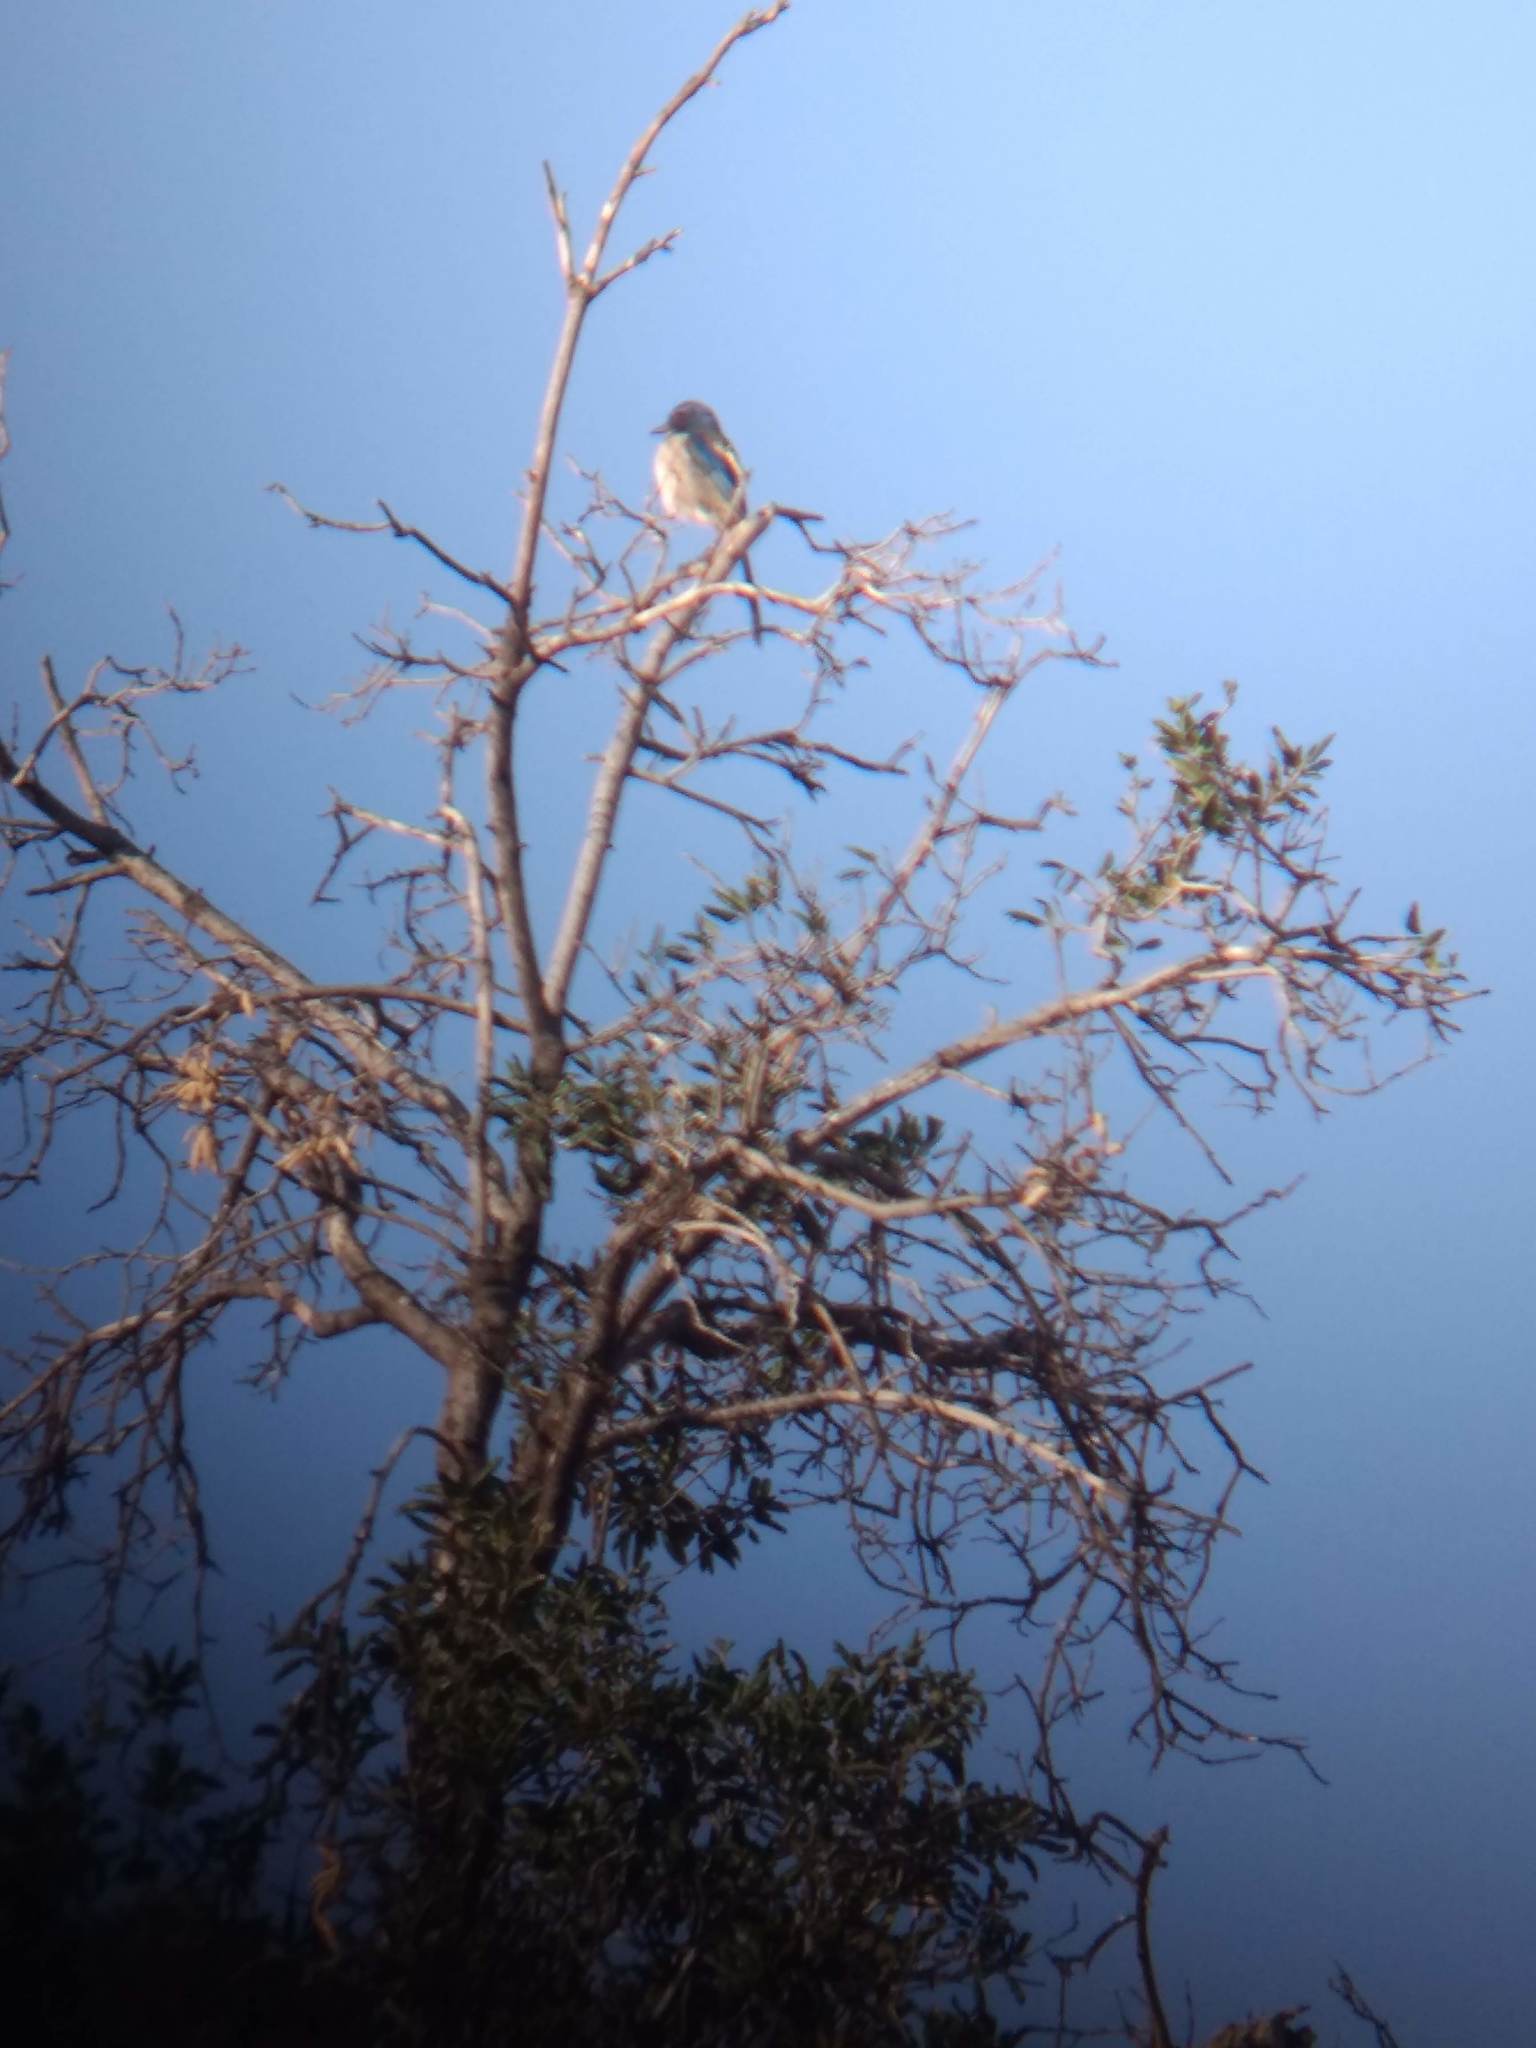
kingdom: Animalia
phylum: Chordata
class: Aves
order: Passeriformes
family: Corvidae
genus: Aphelocoma
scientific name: Aphelocoma californica
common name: California scrub-jay
